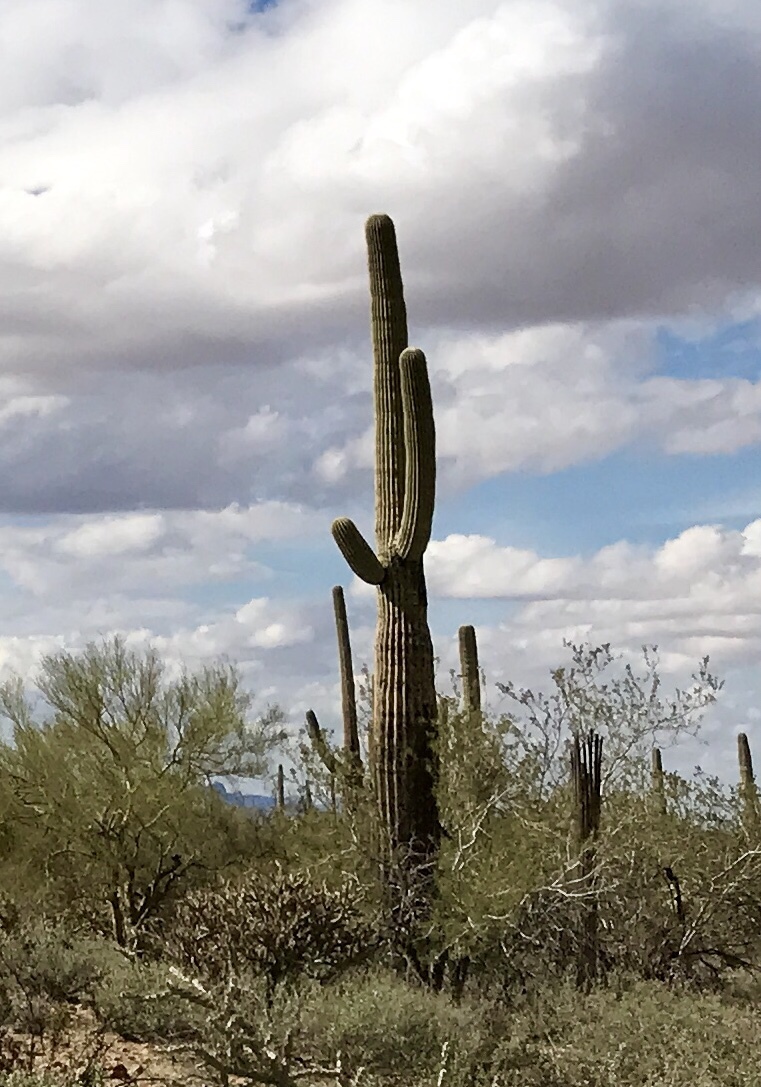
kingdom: Plantae
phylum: Tracheophyta
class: Magnoliopsida
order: Caryophyllales
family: Cactaceae
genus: Carnegiea
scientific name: Carnegiea gigantea
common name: Saguaro
